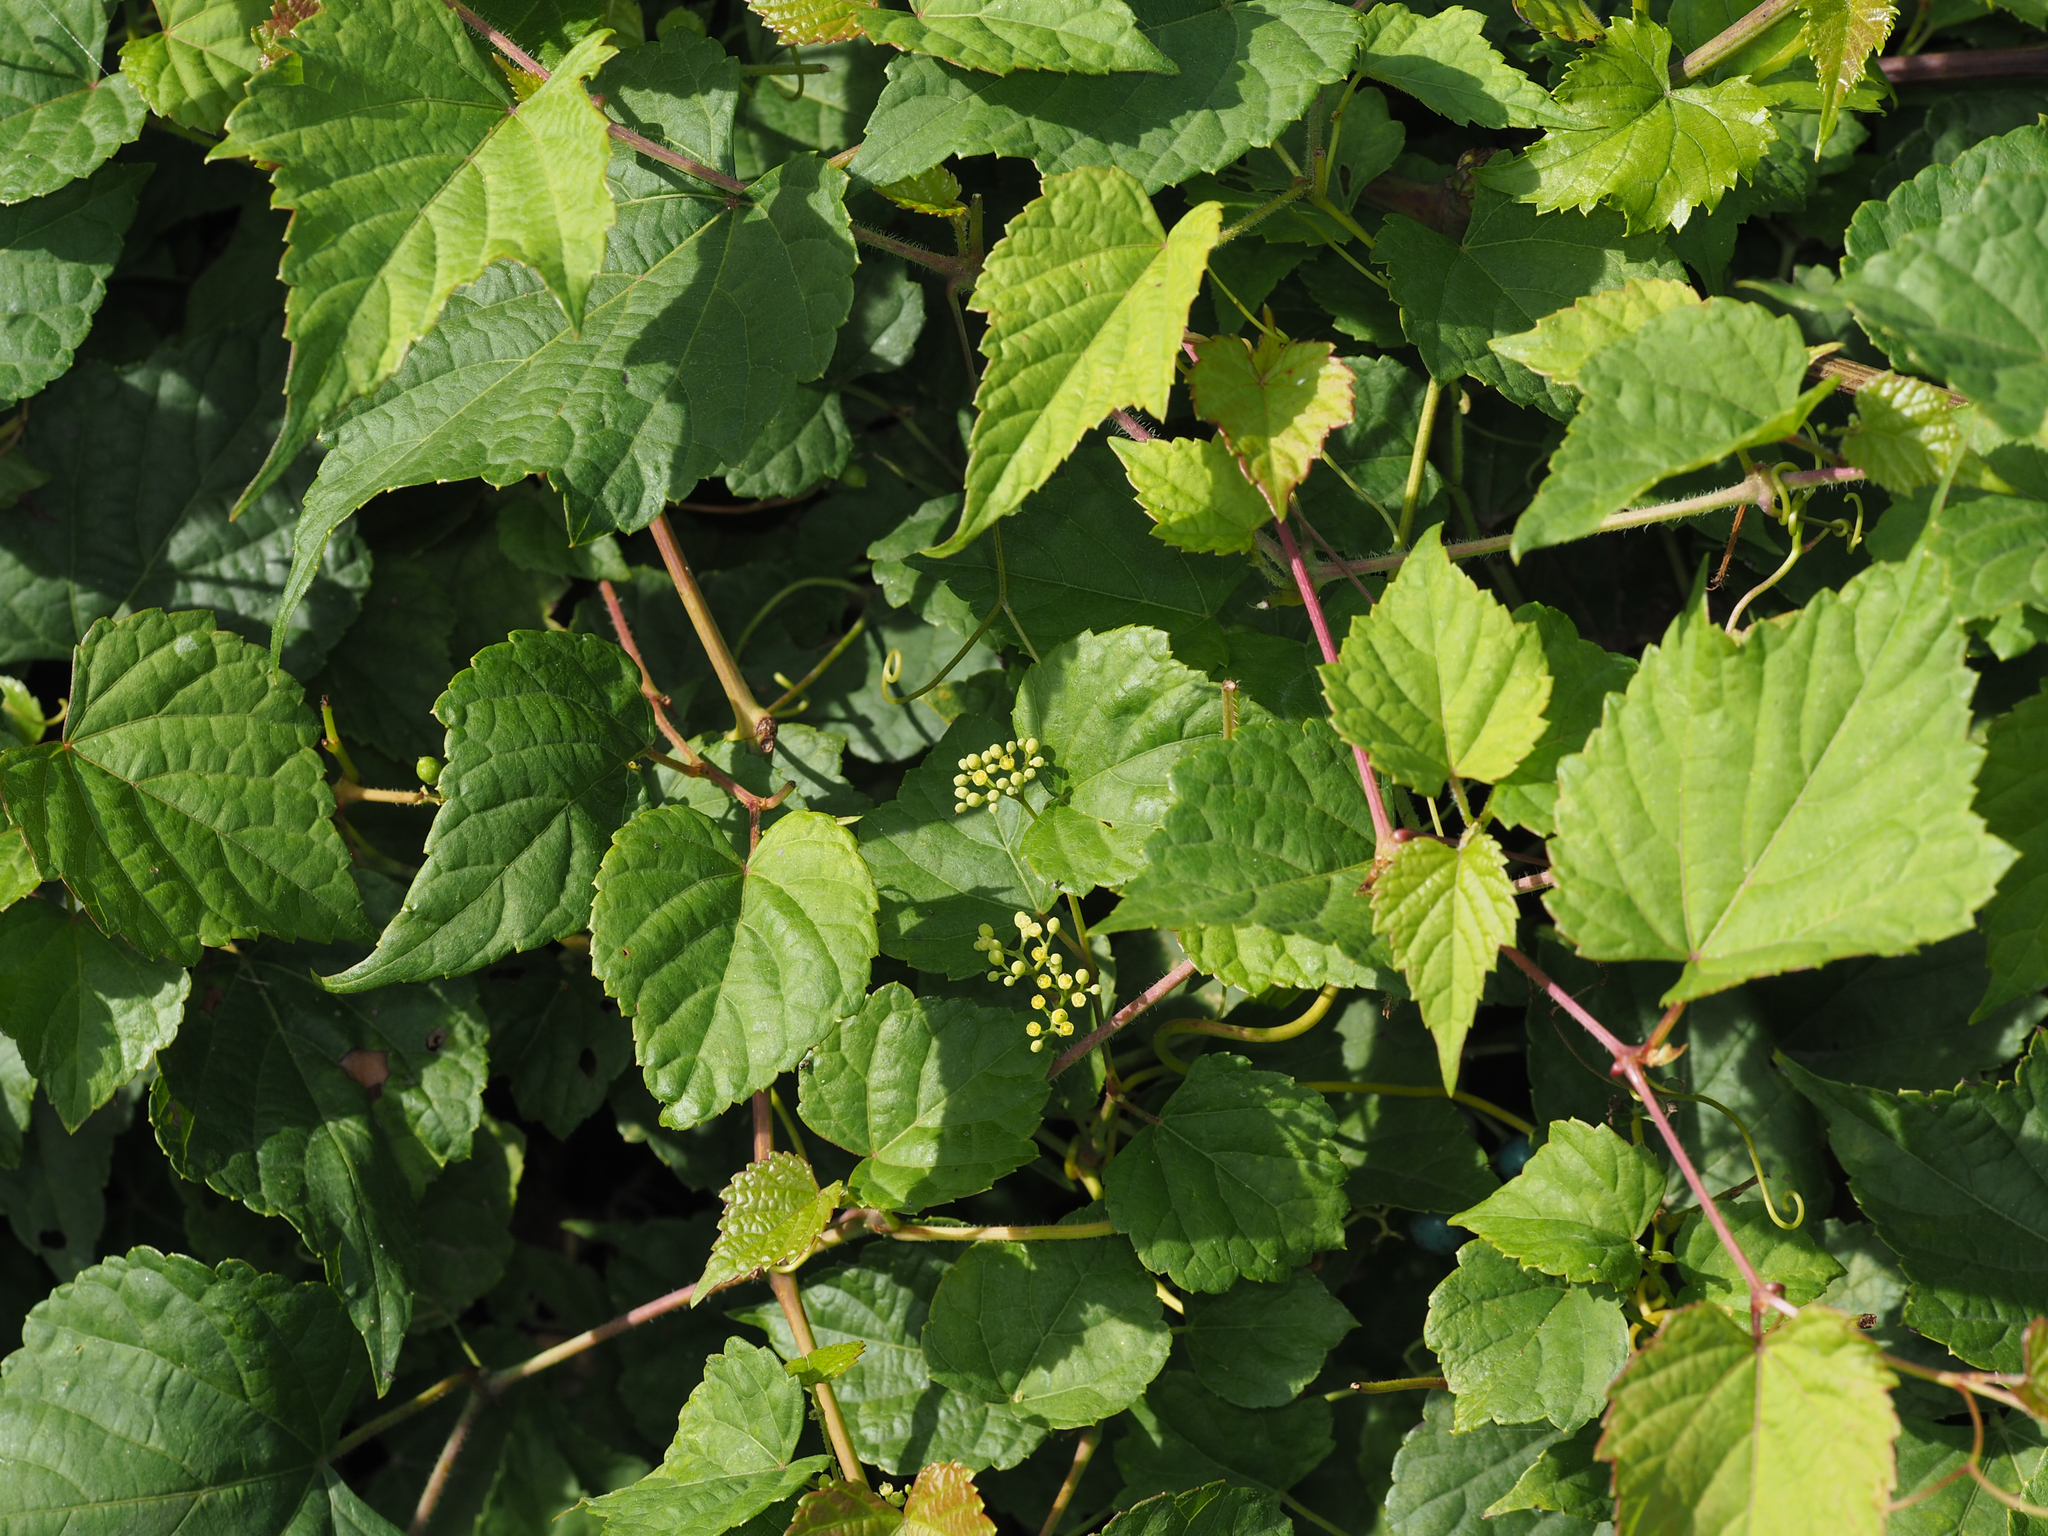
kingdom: Plantae
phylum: Tracheophyta
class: Magnoliopsida
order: Vitales
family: Vitaceae
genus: Ampelopsis
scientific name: Ampelopsis glandulosa
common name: Amur peppervine
